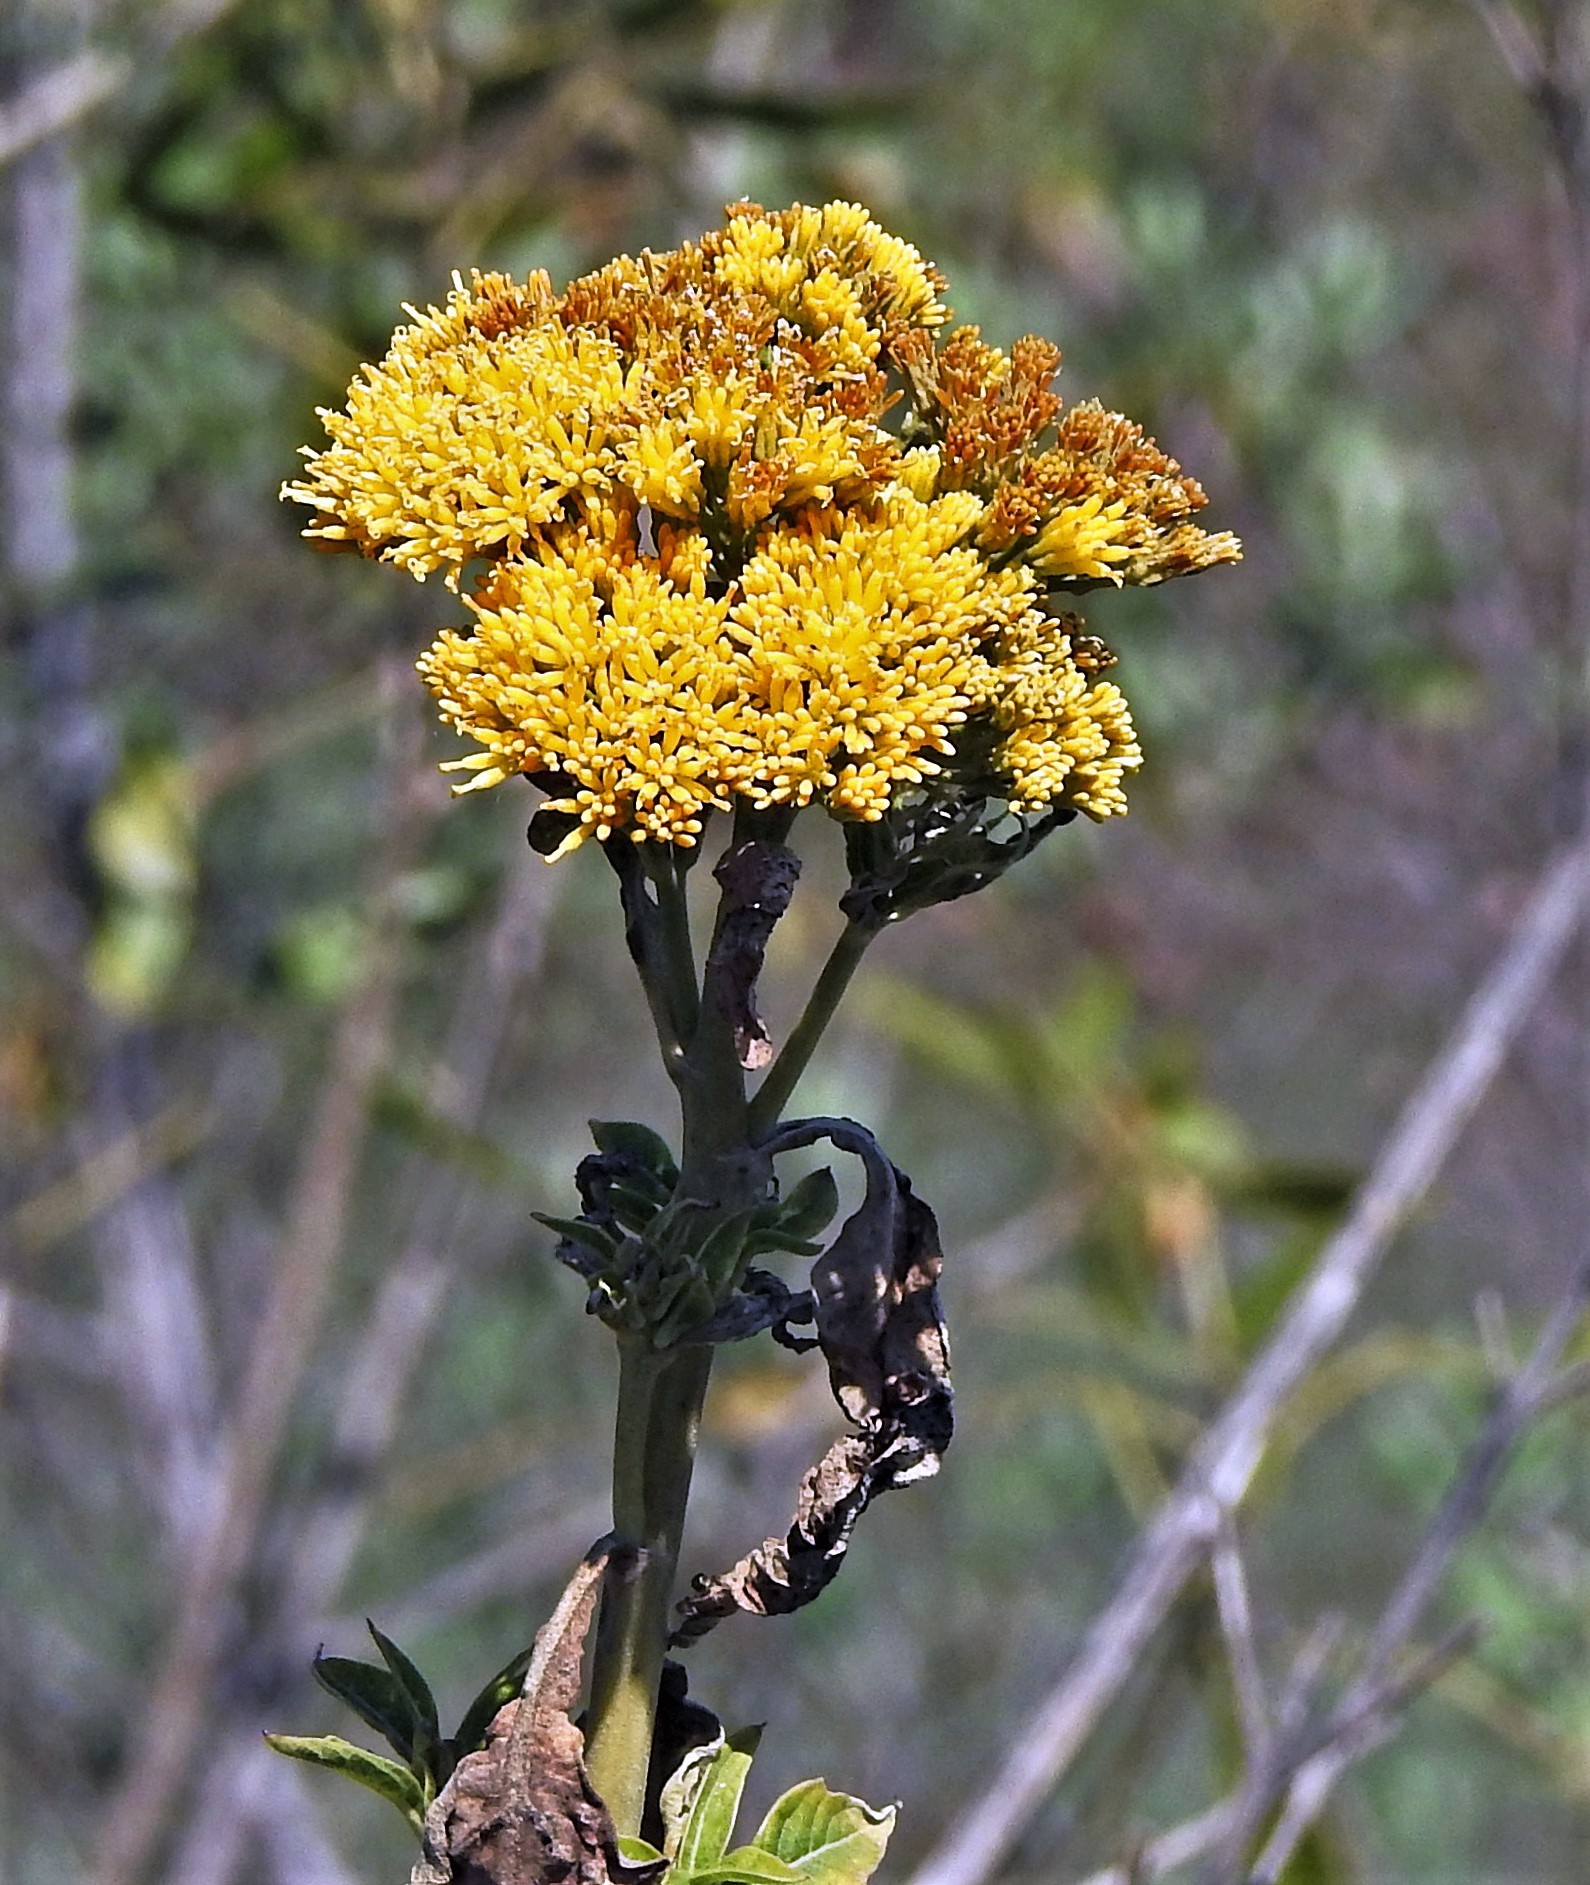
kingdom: Plantae
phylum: Tracheophyta
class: Magnoliopsida
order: Asterales
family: Asteraceae
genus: Verbesina
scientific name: Verbesina suncho
